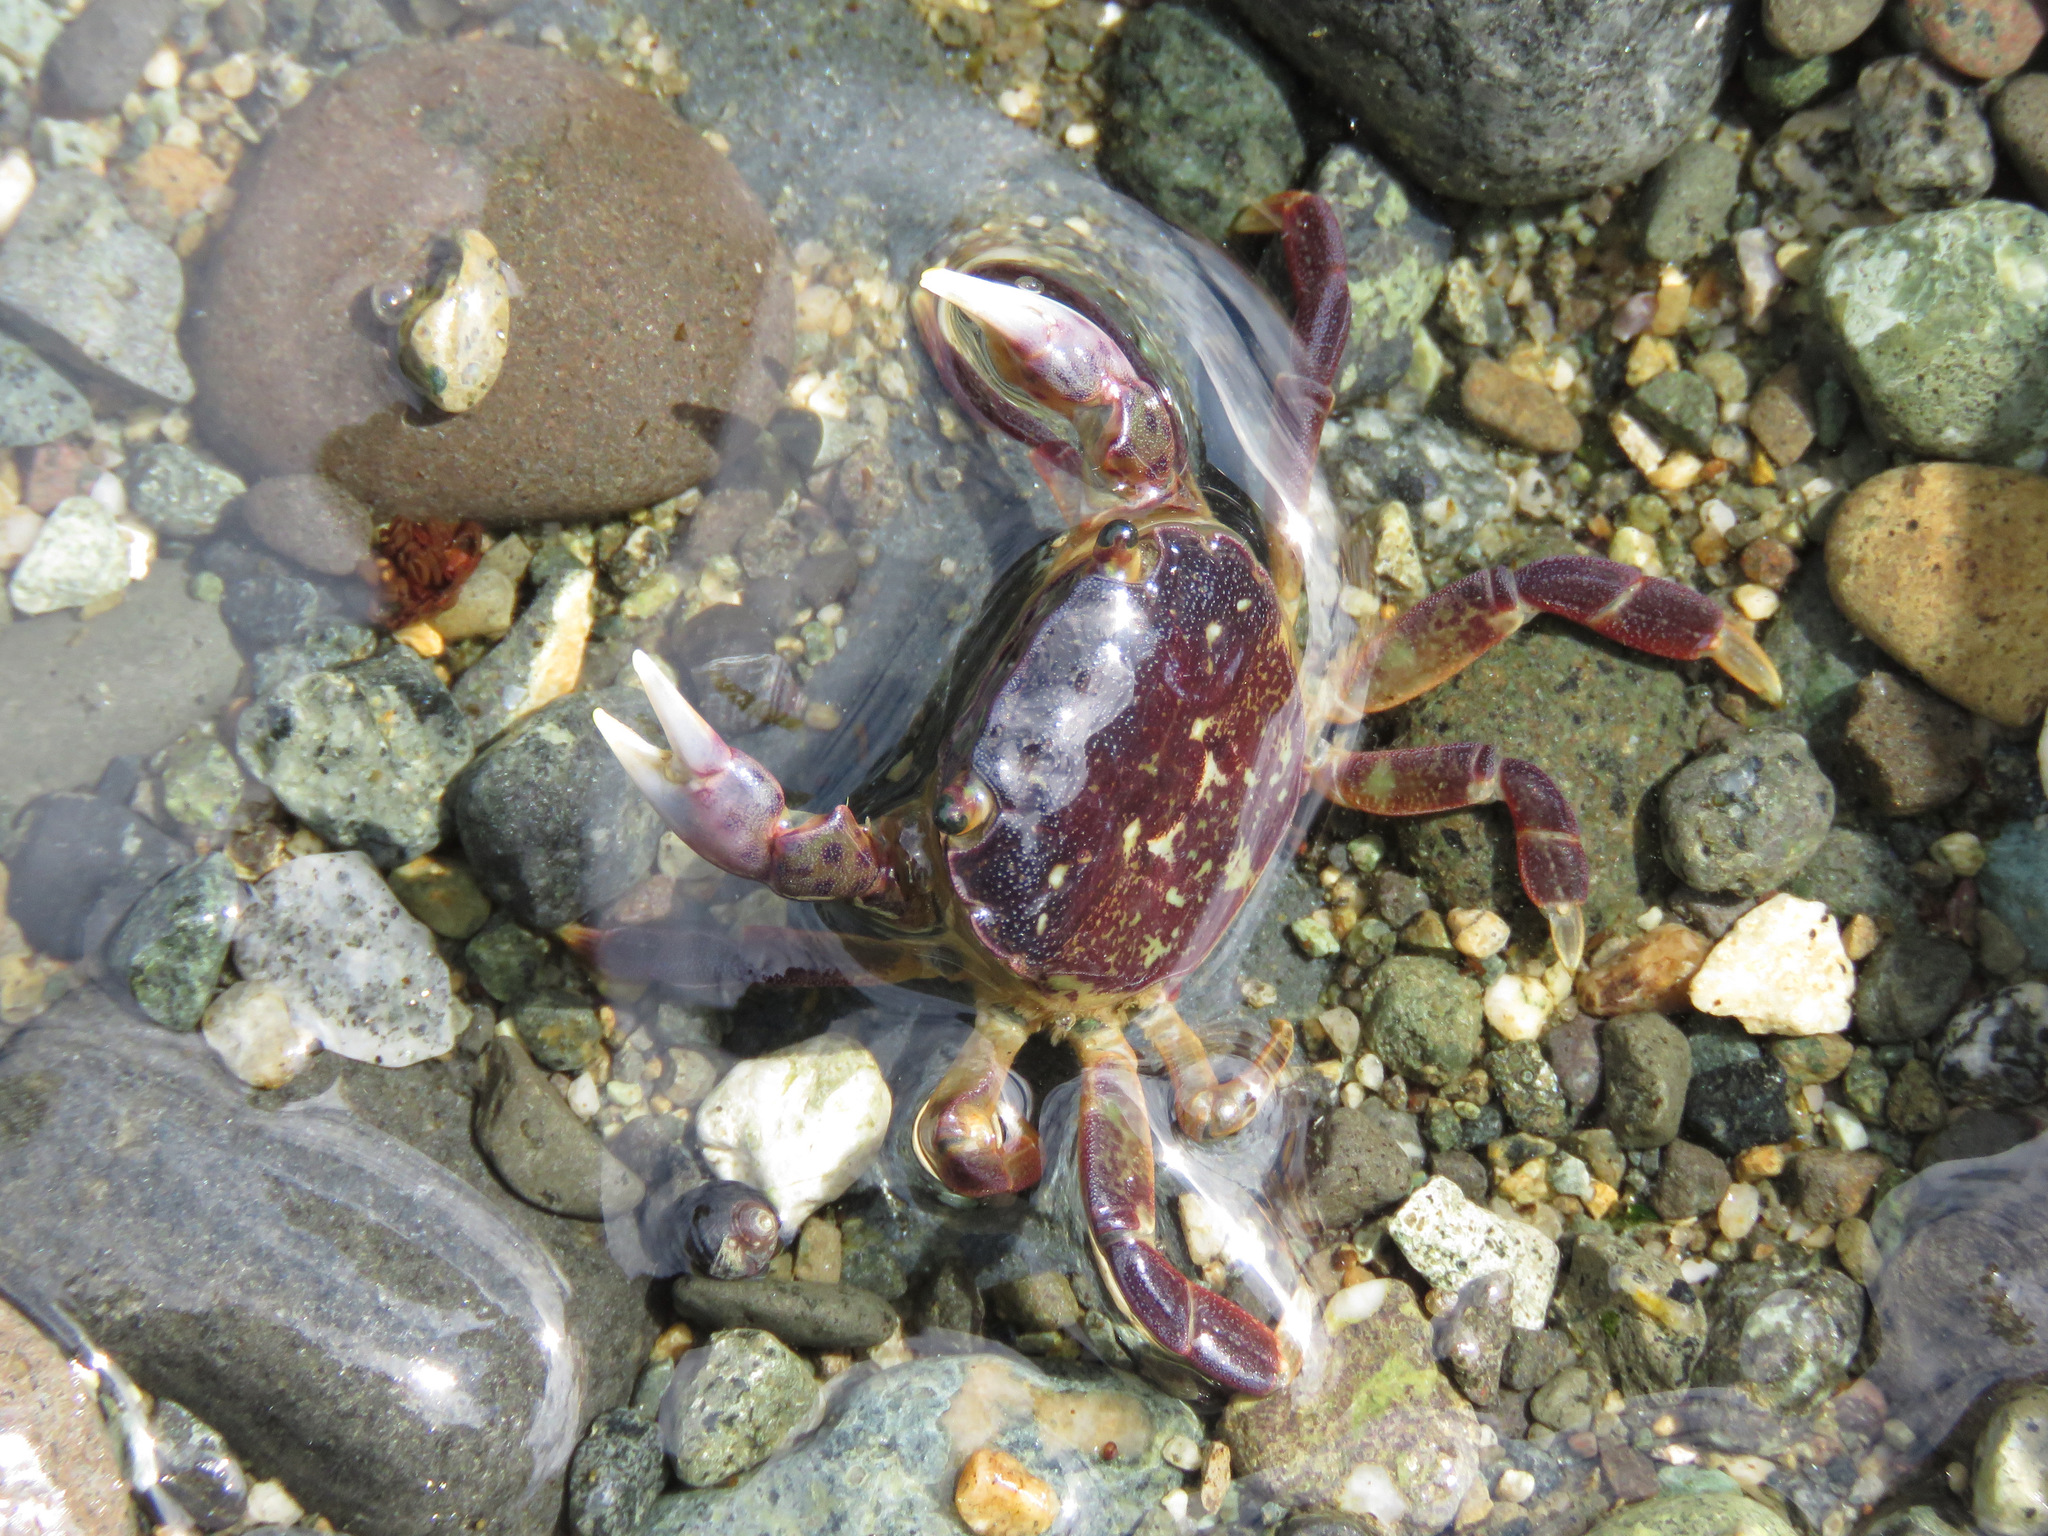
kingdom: Animalia
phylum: Arthropoda
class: Malacostraca
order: Decapoda
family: Varunidae
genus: Hemigrapsus
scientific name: Hemigrapsus nudus
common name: Purple shore crab
